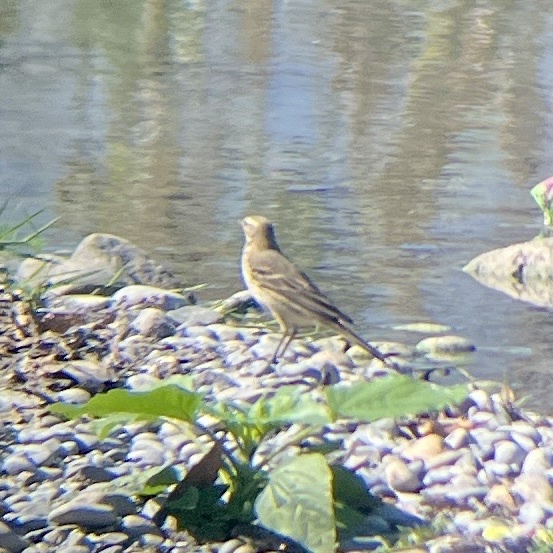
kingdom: Animalia
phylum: Chordata
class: Aves
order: Passeriformes
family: Motacillidae
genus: Anthus
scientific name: Anthus rubescens
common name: Buff-bellied pipit
